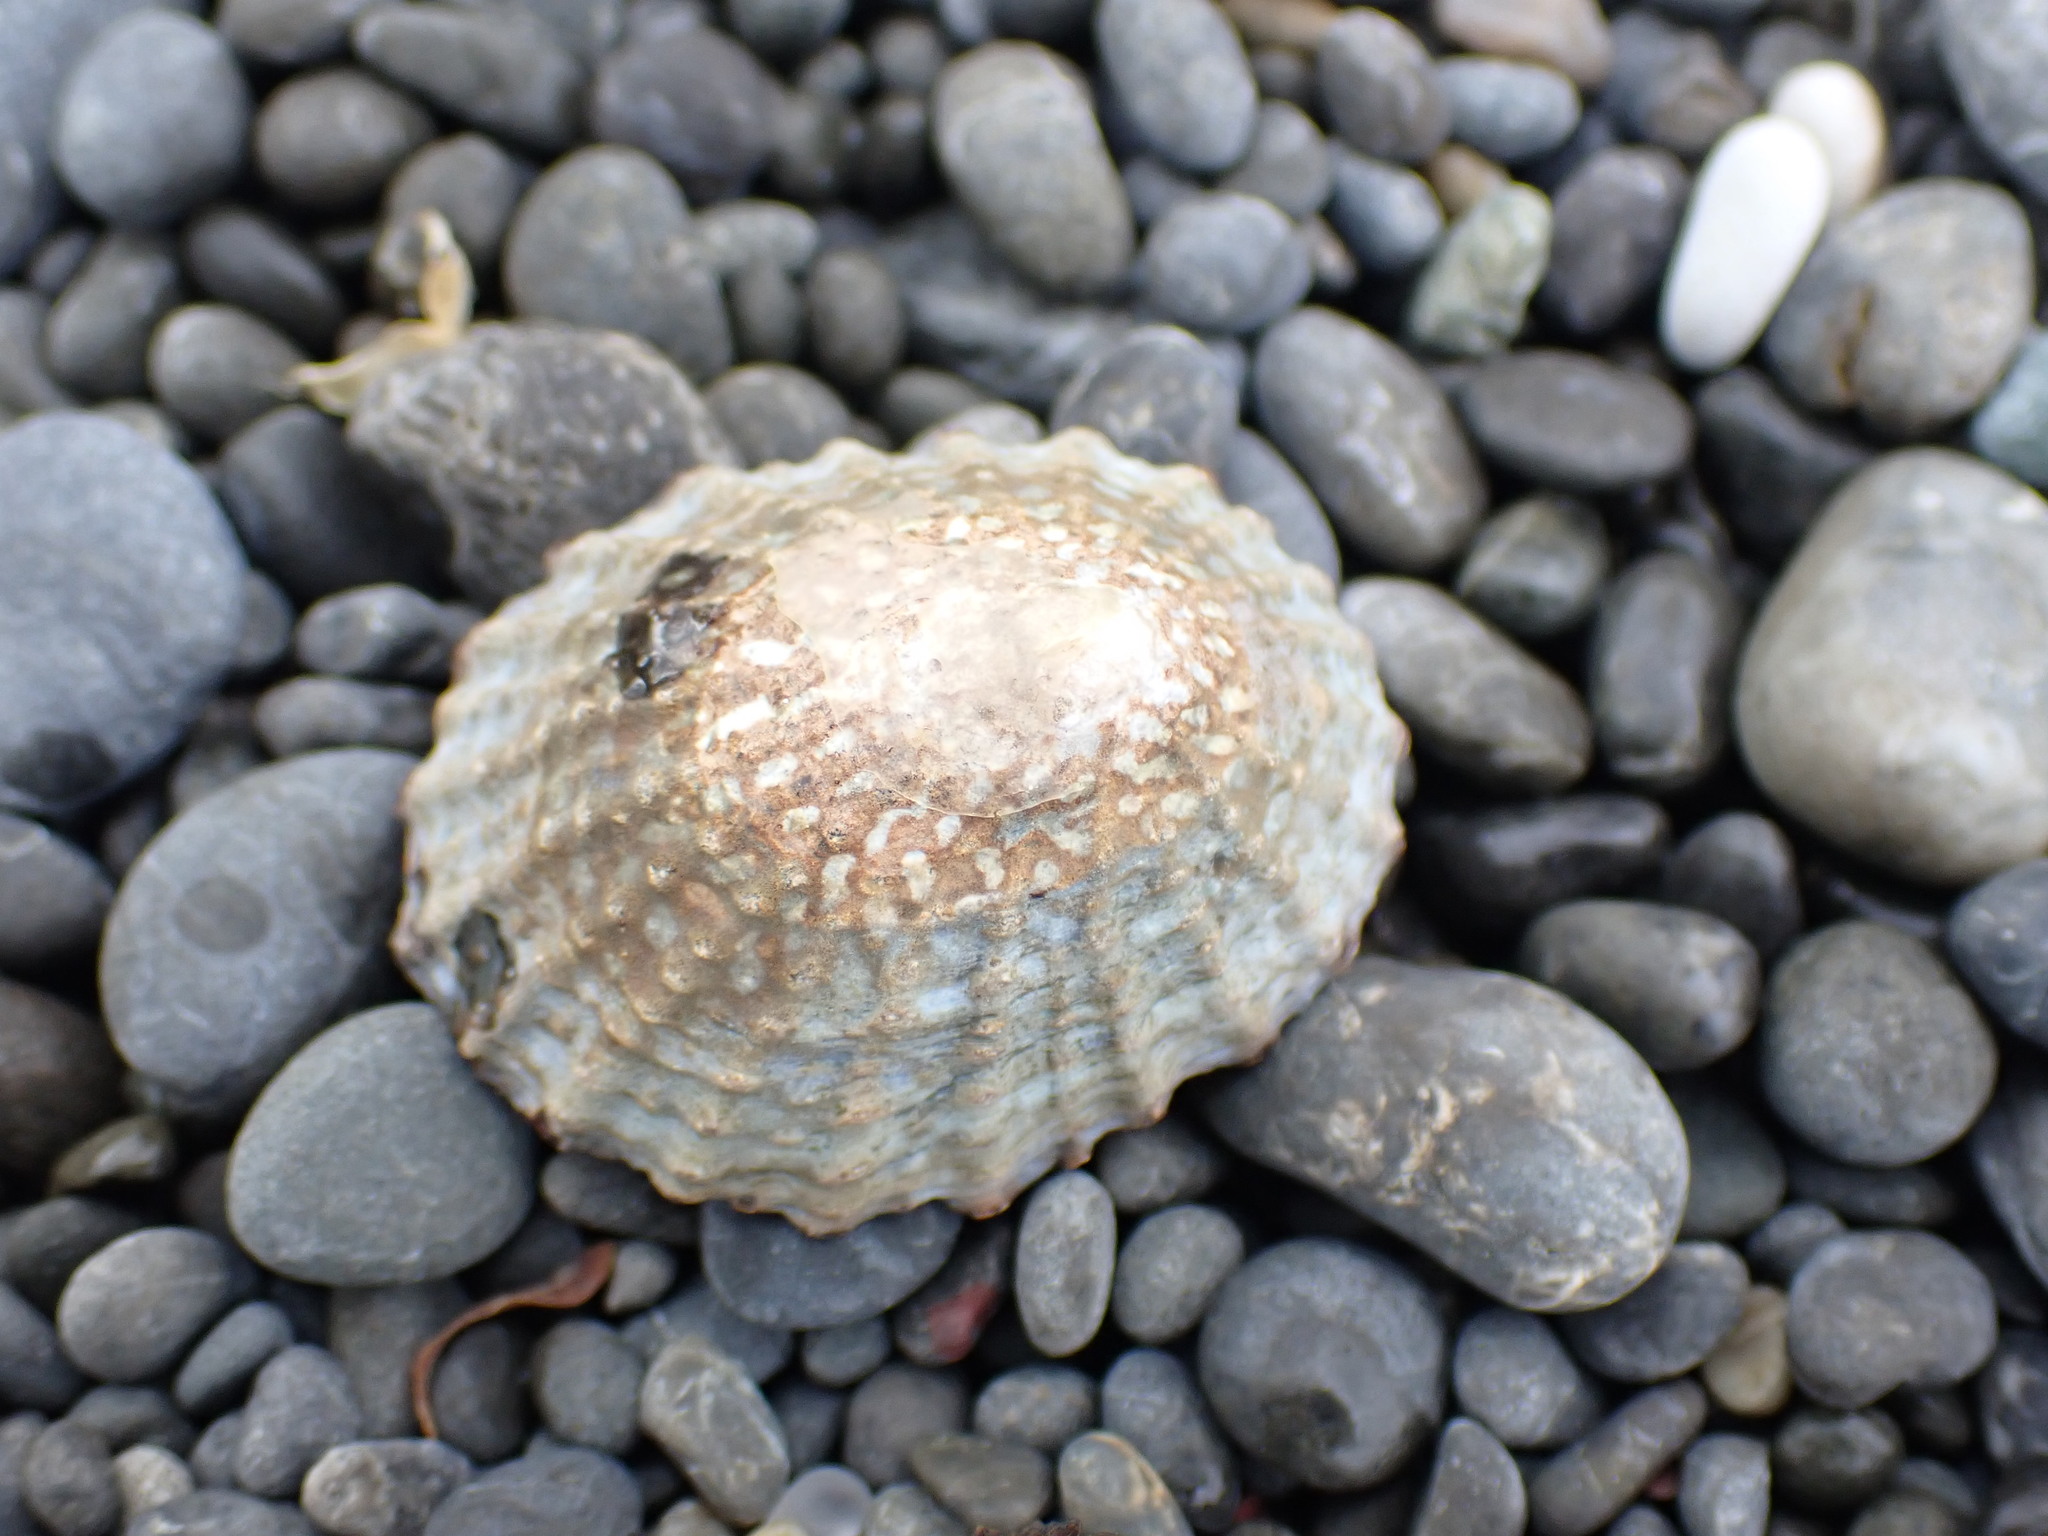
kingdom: Animalia
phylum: Mollusca
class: Gastropoda
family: Nacellidae
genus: Cellana
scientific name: Cellana denticulata
